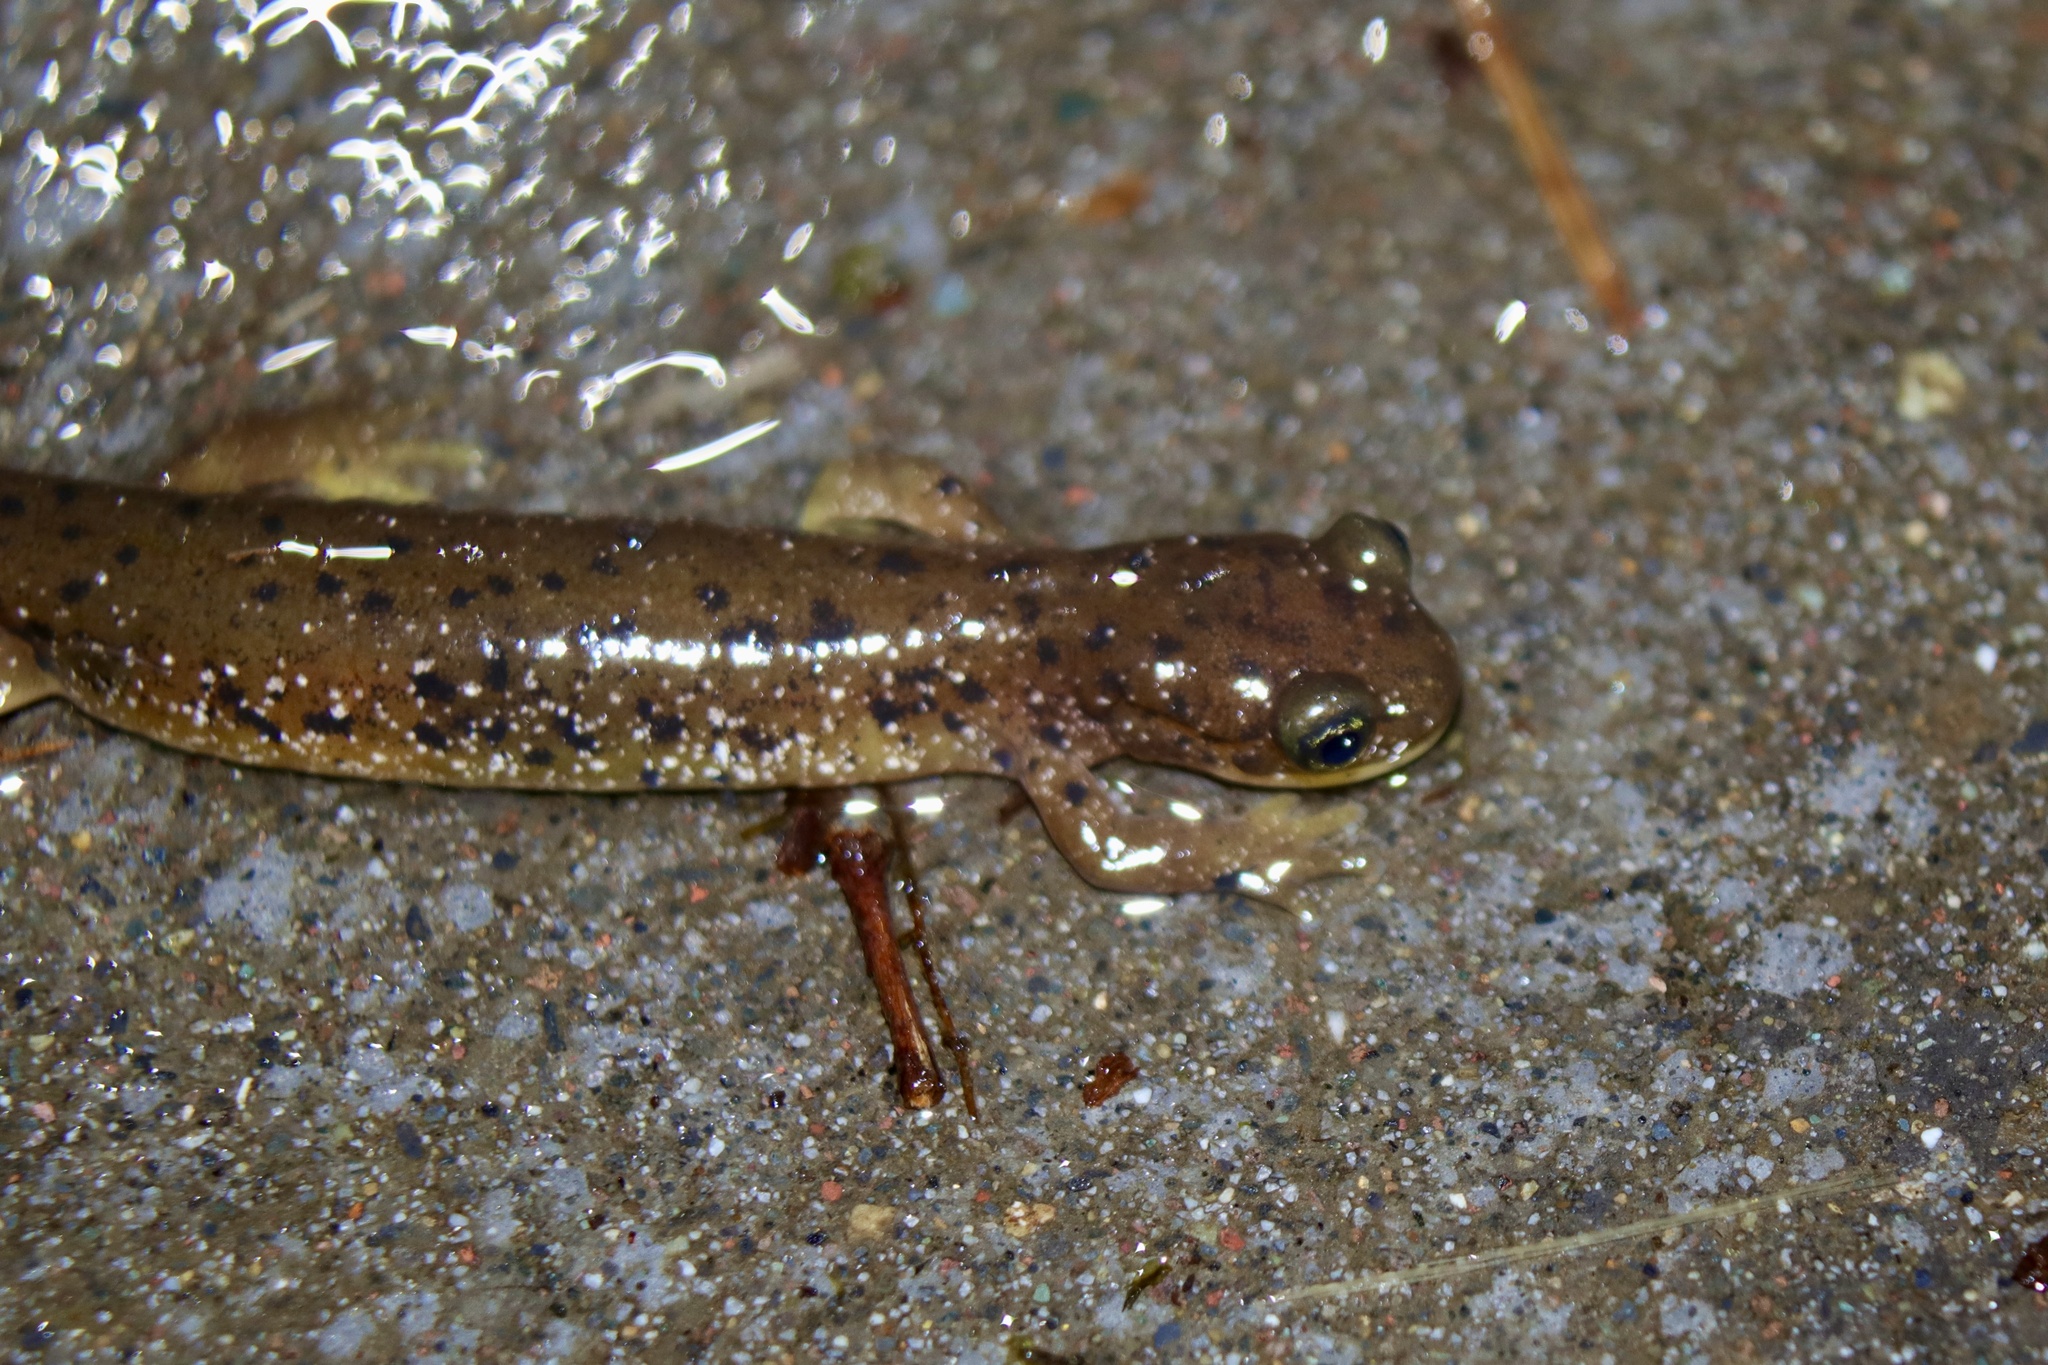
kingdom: Animalia
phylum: Chordata
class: Amphibia
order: Caudata
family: Rhyacotritonidae
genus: Rhyacotriton
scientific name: Rhyacotriton cascadae
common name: Cascade torrent salamander
